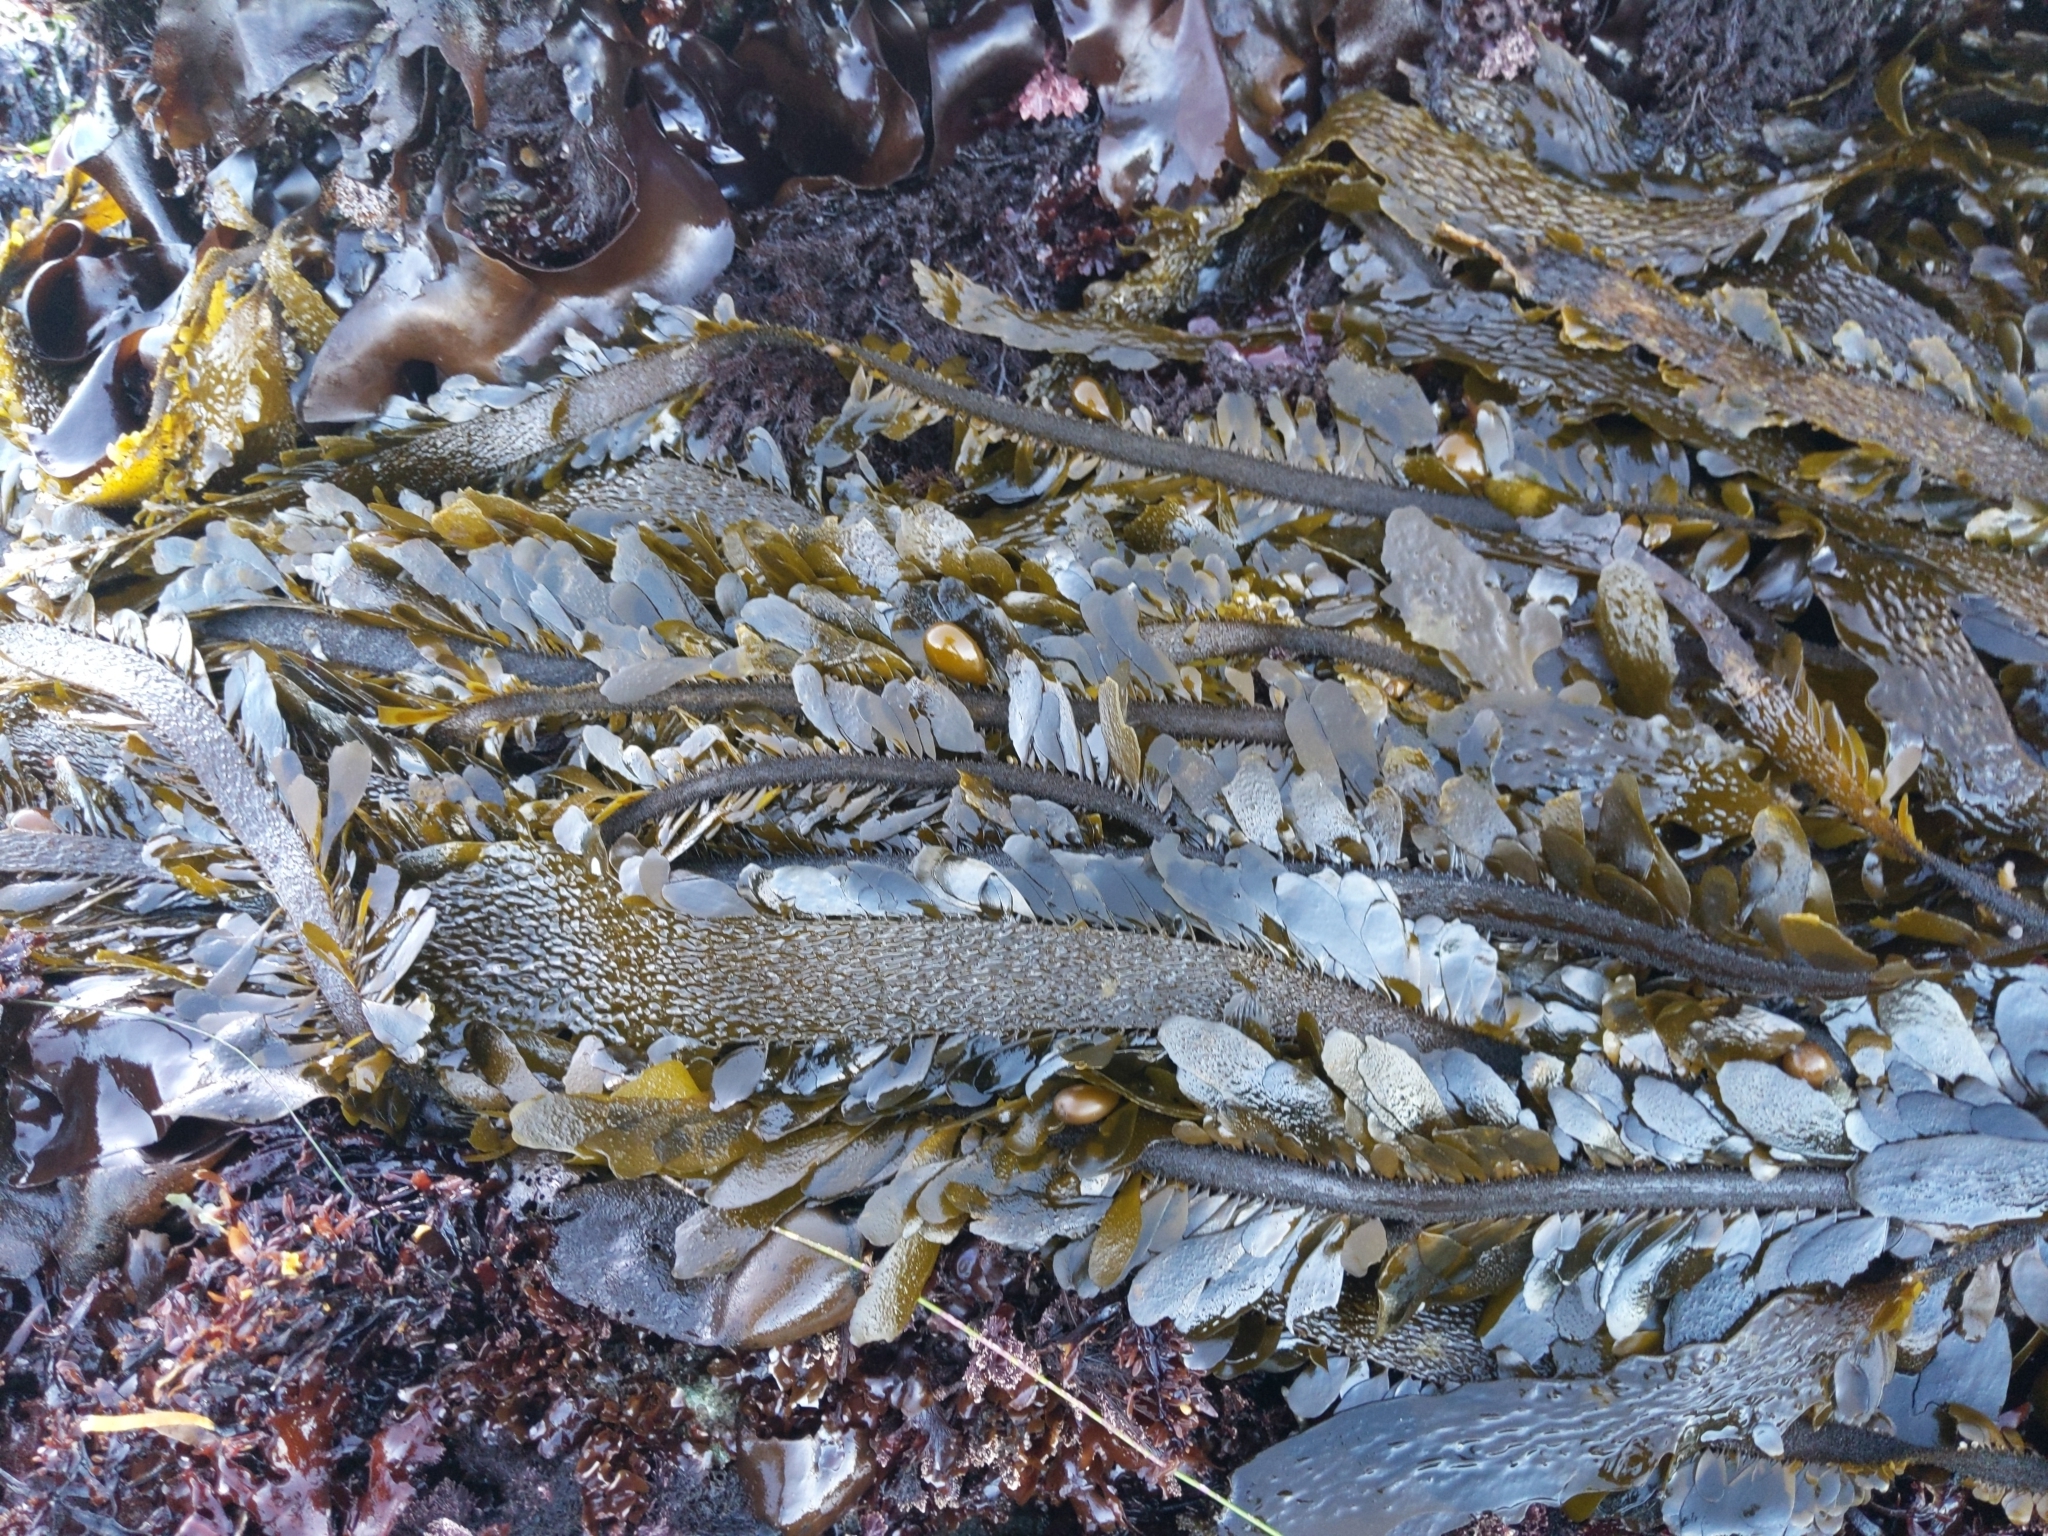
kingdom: Chromista
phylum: Ochrophyta
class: Phaeophyceae
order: Laminariales
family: Lessoniaceae
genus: Egregia
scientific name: Egregia menziesii
